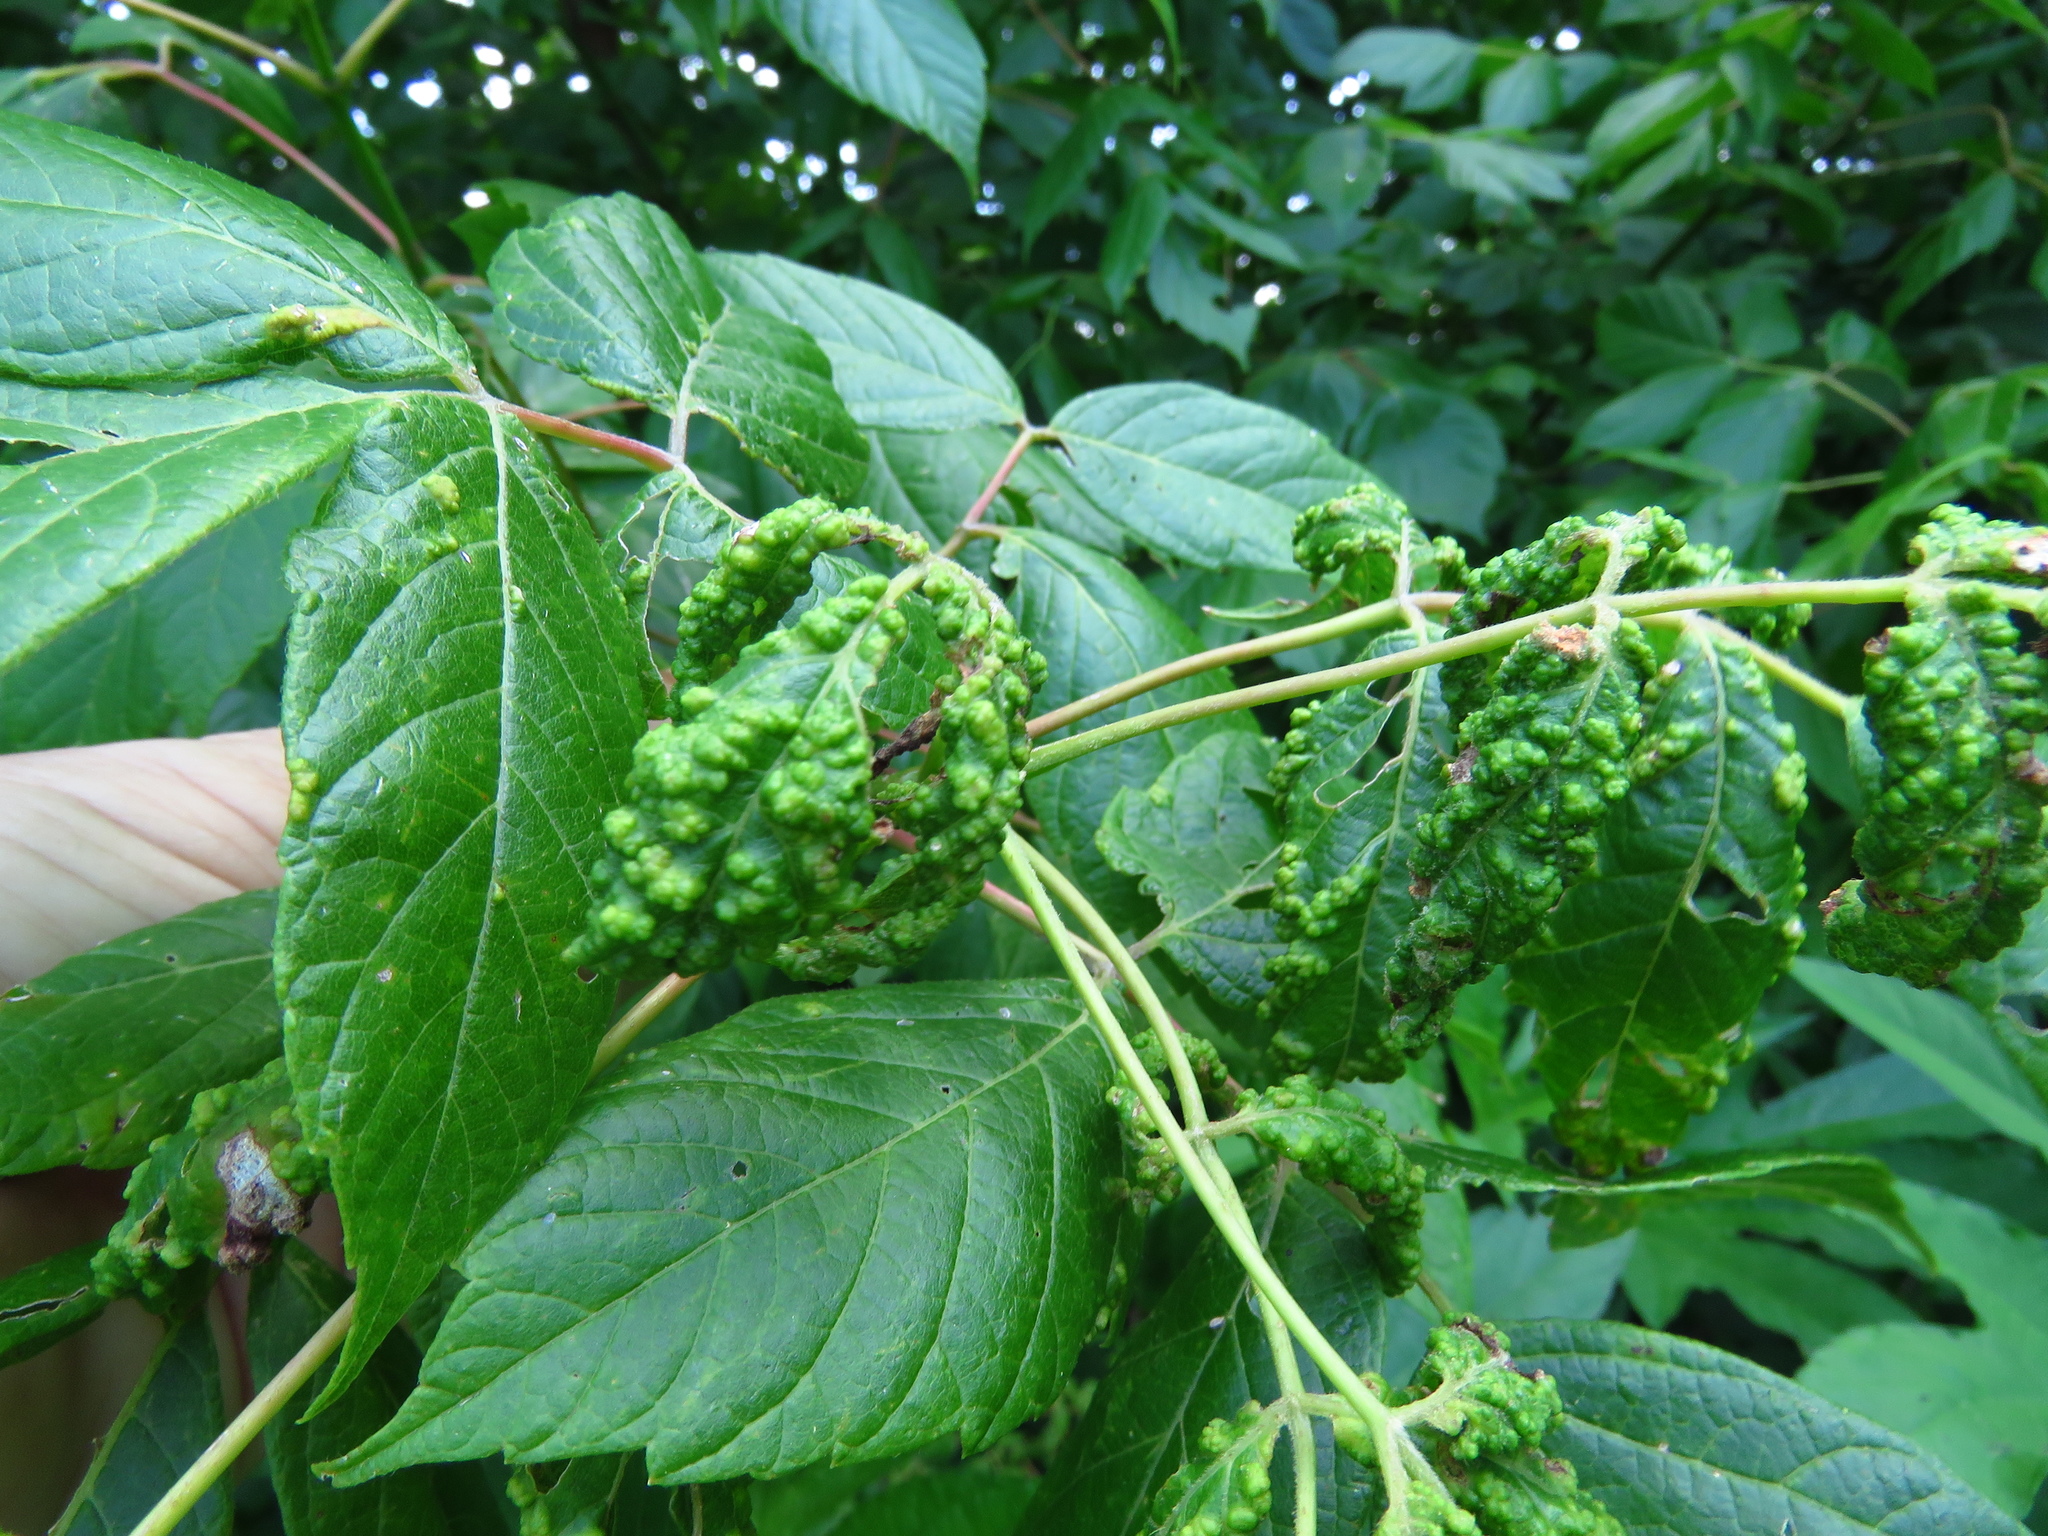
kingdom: Animalia
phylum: Arthropoda
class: Arachnida
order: Trombidiformes
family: Eriophyidae
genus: Aceria
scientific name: Aceria
